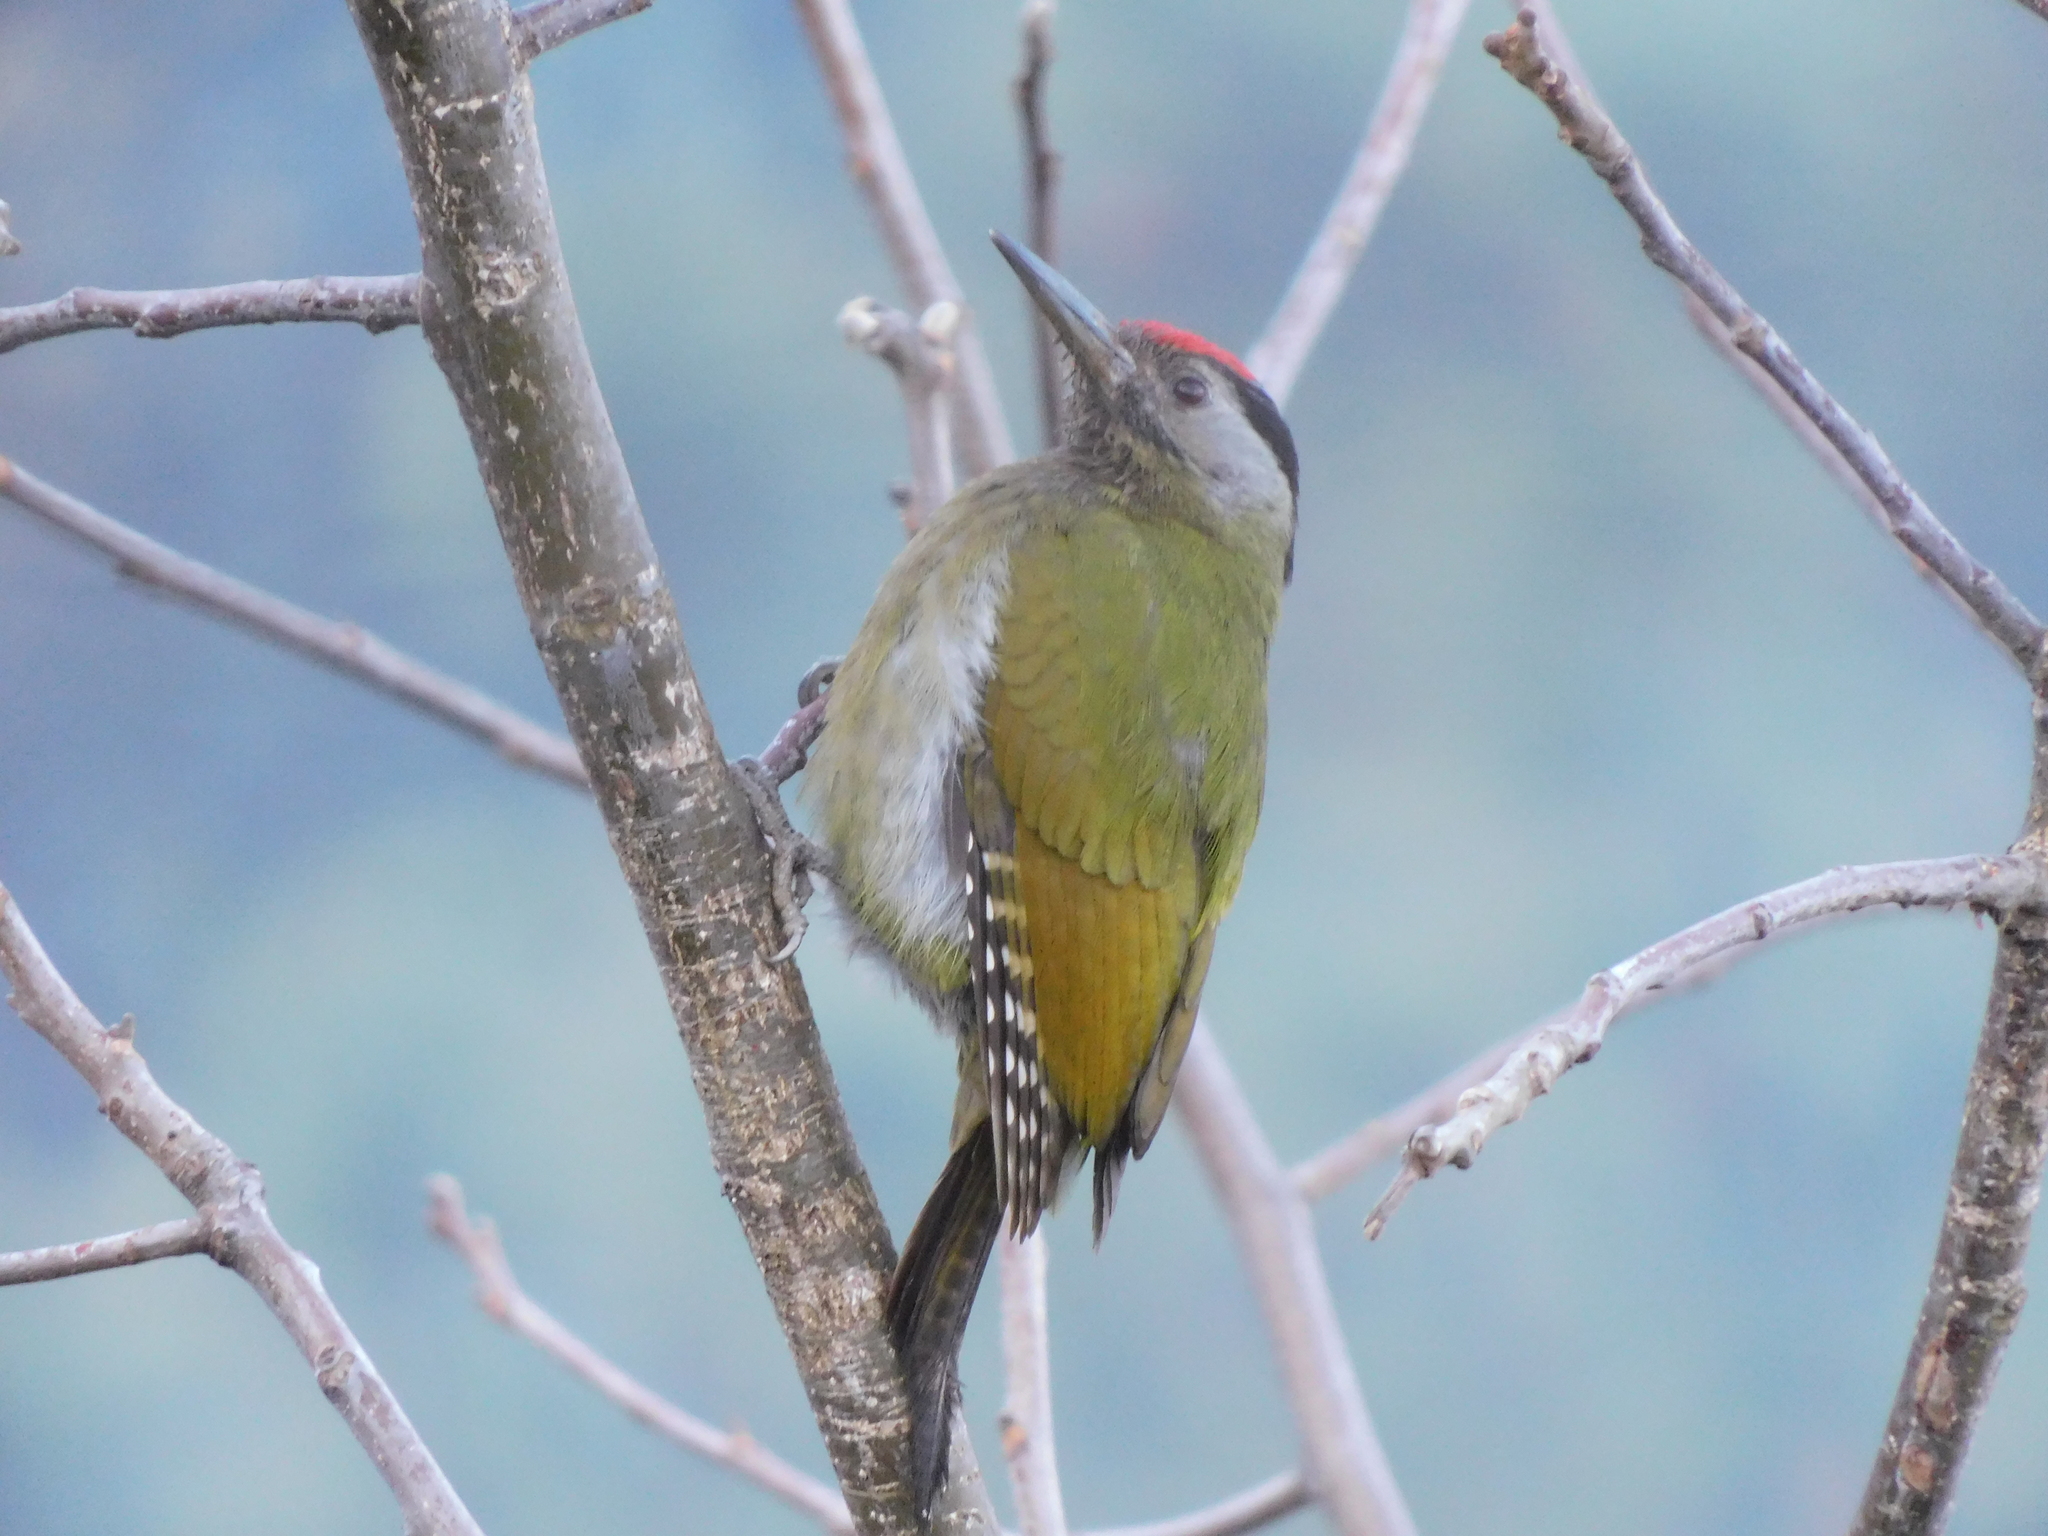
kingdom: Animalia
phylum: Chordata
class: Aves
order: Piciformes
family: Picidae
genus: Picus
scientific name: Picus canus
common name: Grey-headed woodpecker
